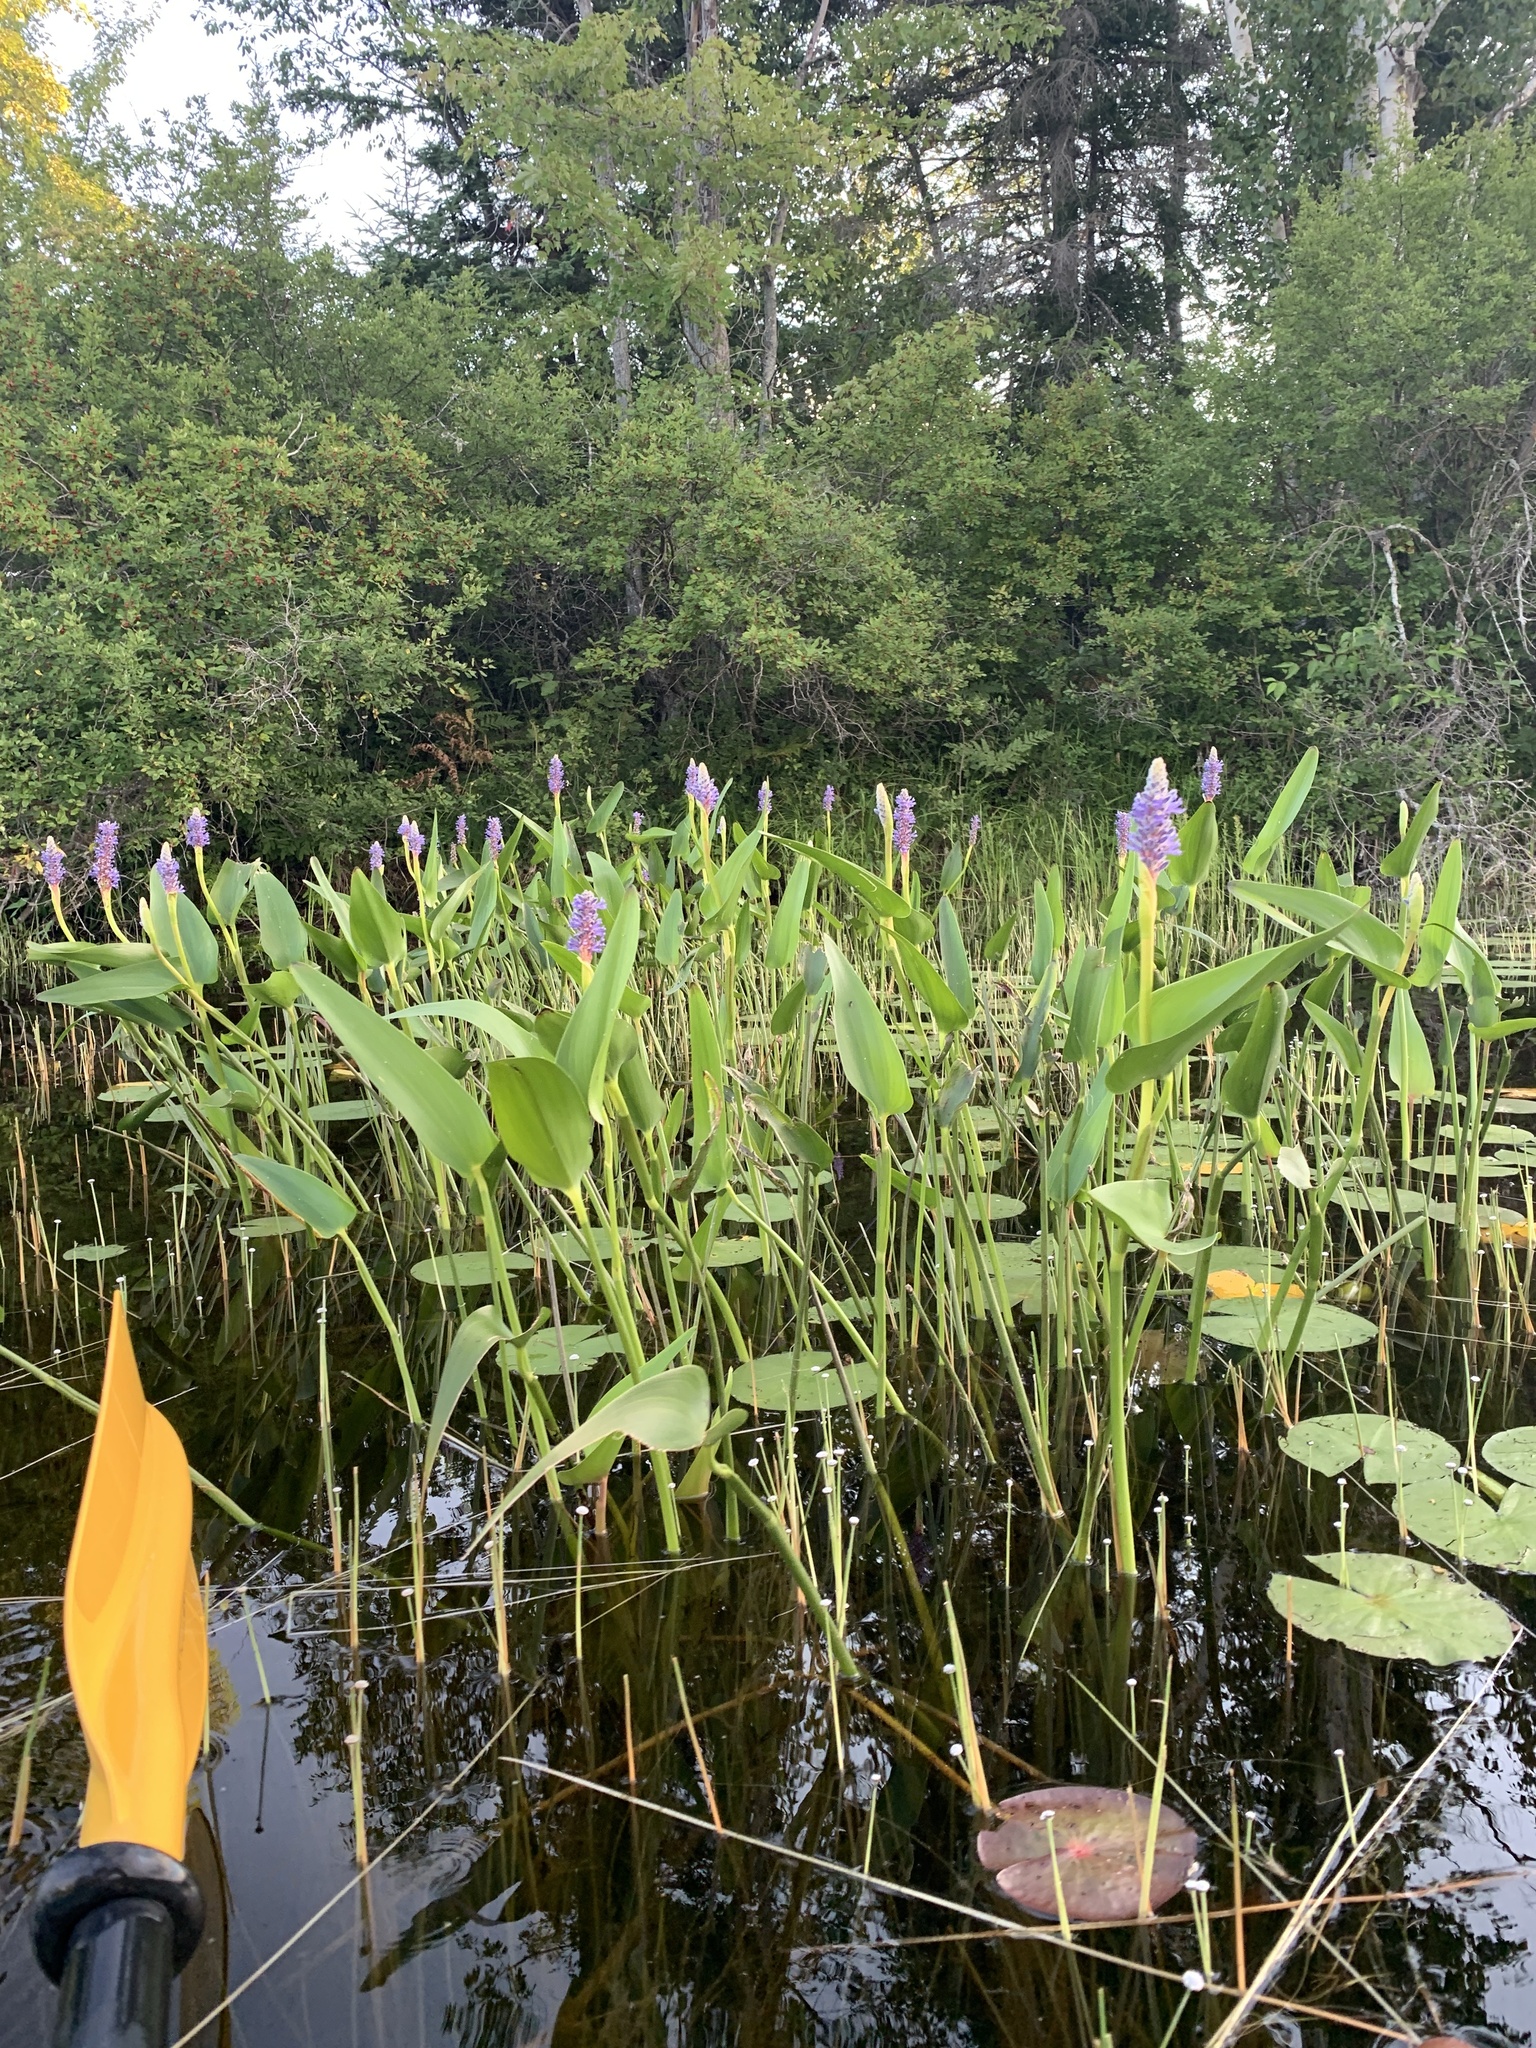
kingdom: Plantae
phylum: Tracheophyta
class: Liliopsida
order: Commelinales
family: Pontederiaceae
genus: Pontederia
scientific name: Pontederia cordata
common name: Pickerelweed
